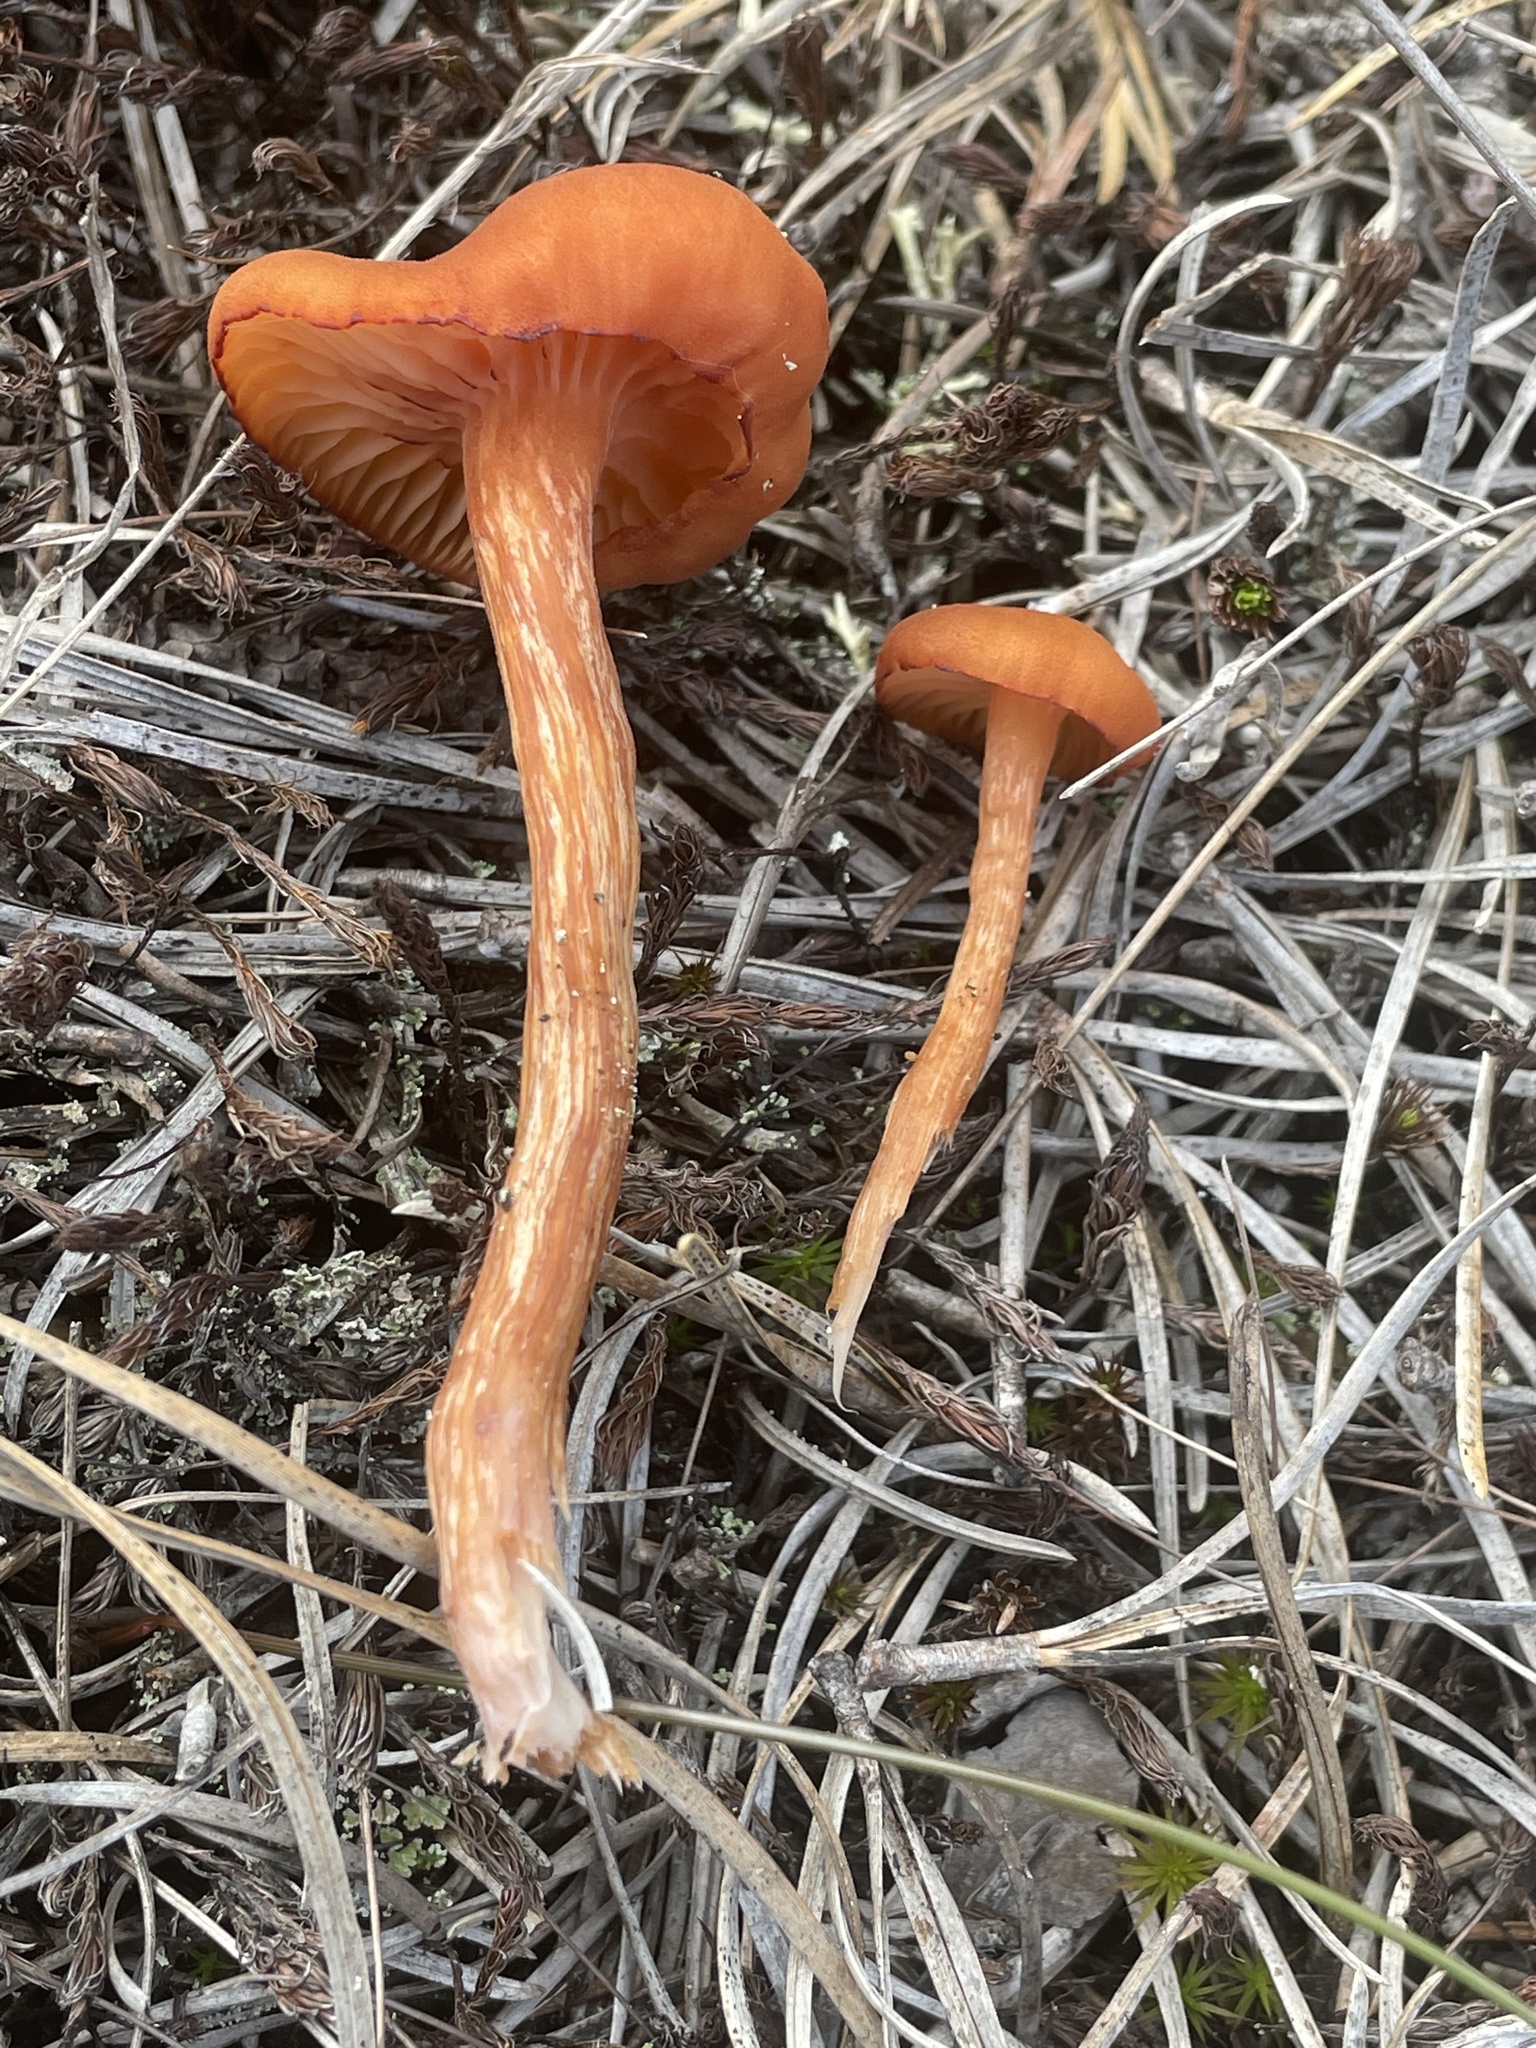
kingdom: Fungi
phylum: Basidiomycota
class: Agaricomycetes
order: Agaricales
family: Hydnangiaceae
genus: Laccaria
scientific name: Laccaria laccata
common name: Deceiver
